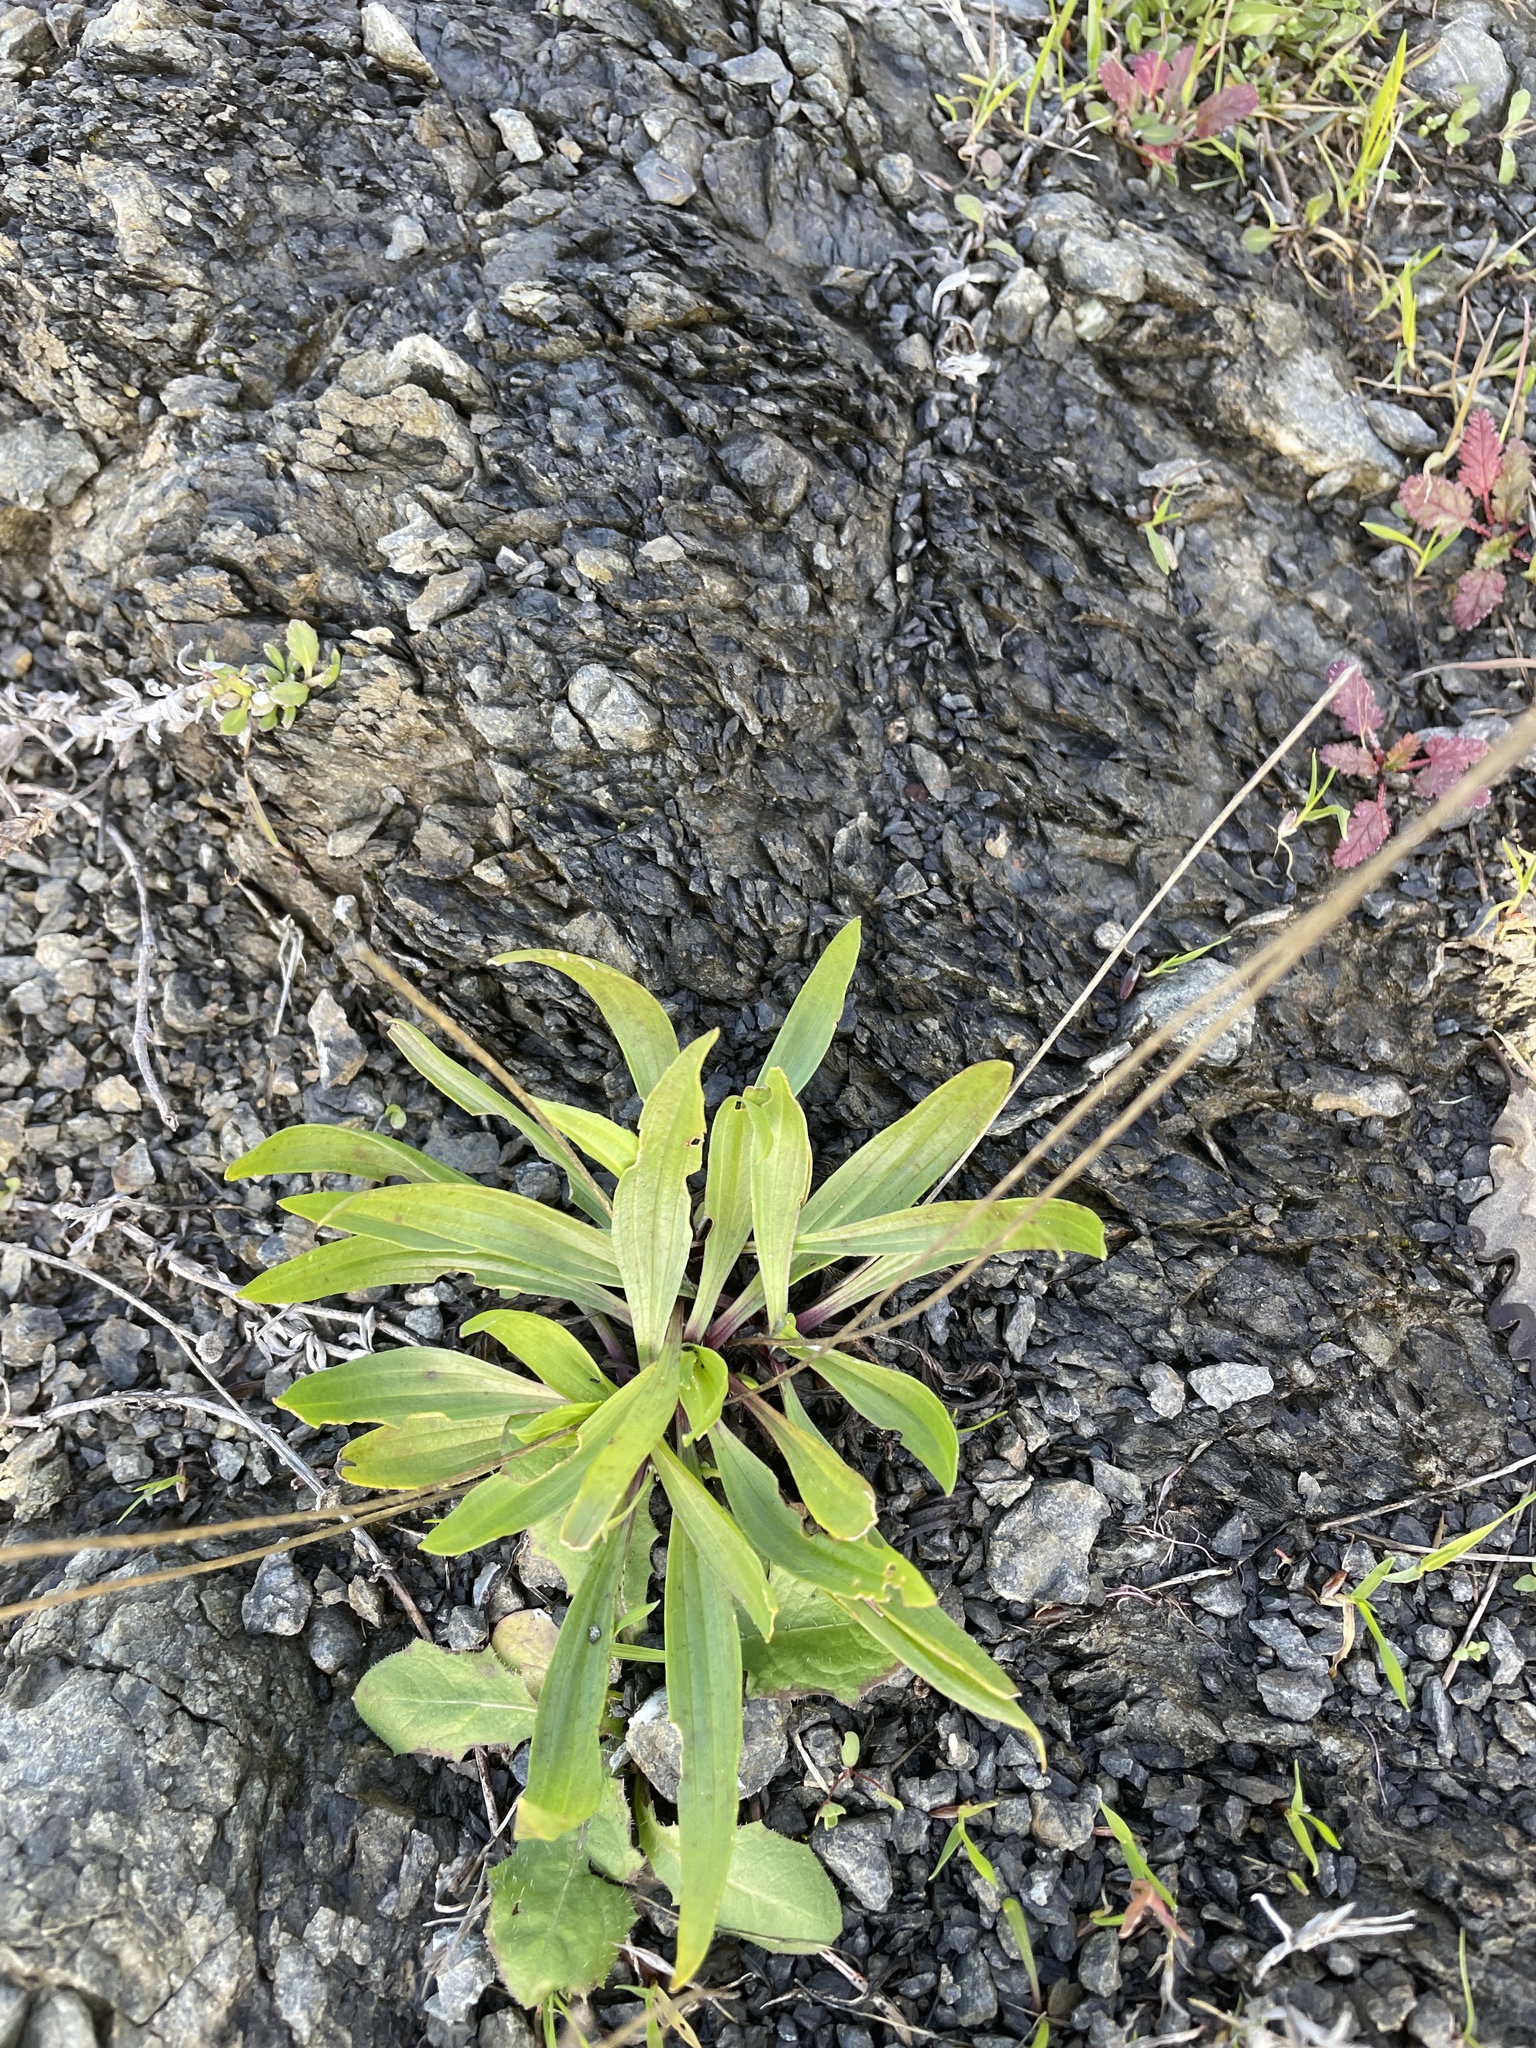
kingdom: Plantae
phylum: Tracheophyta
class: Magnoliopsida
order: Lamiales
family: Plantaginaceae
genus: Plantago
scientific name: Plantago lanceolata
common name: Ribwort plantain
